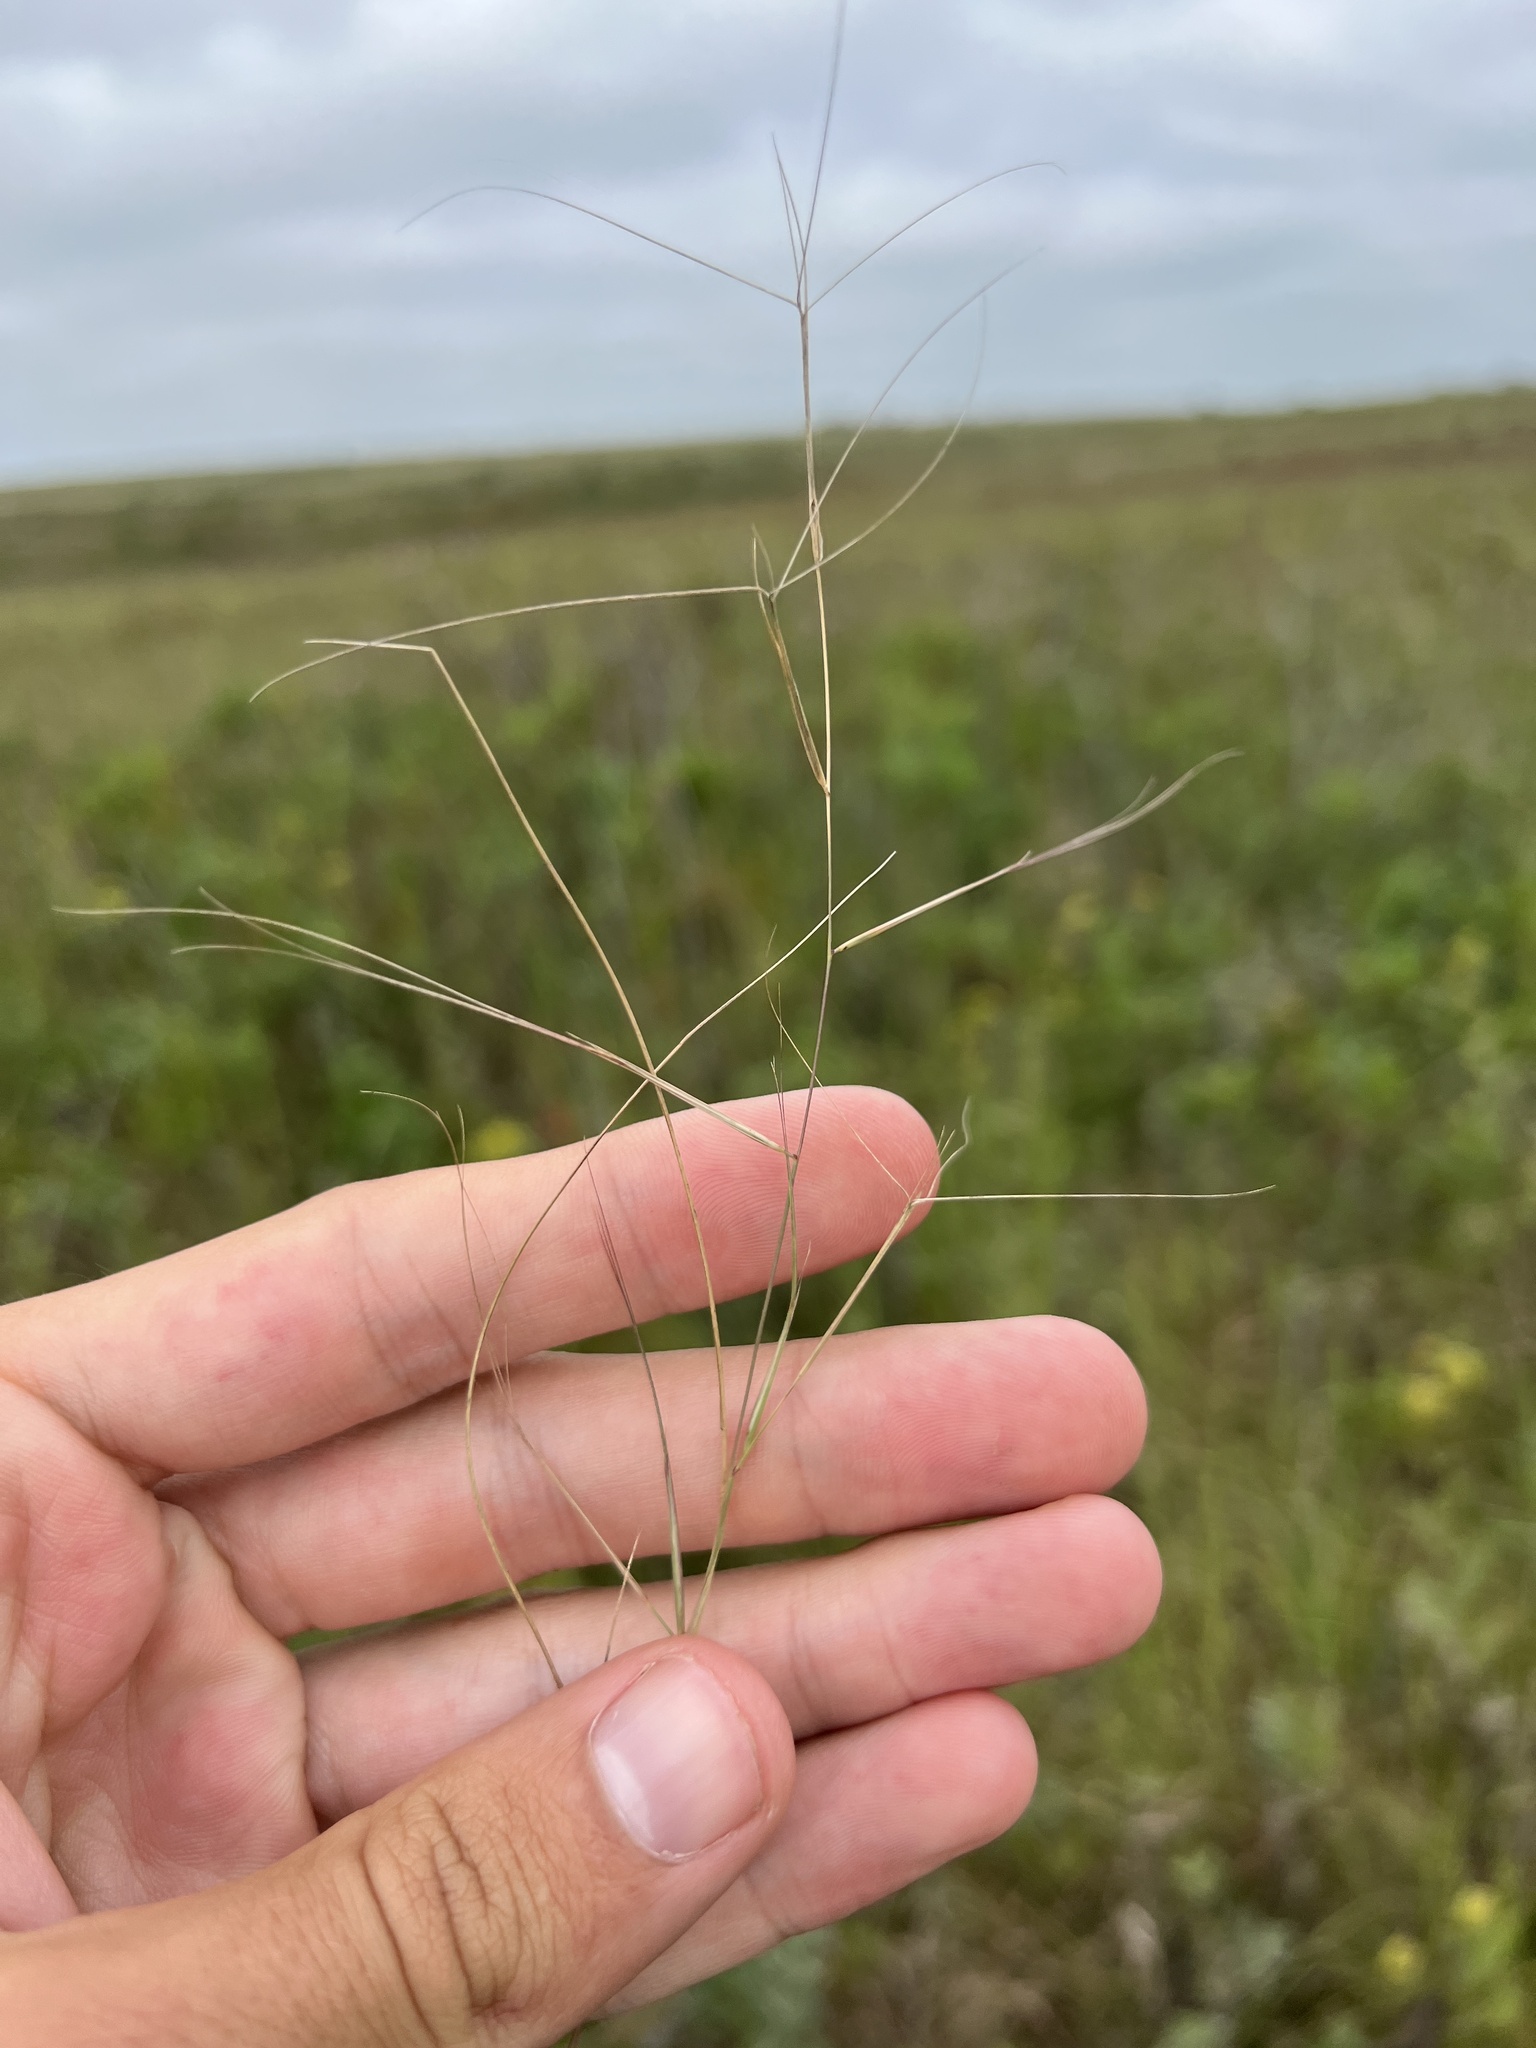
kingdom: Plantae
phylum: Tracheophyta
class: Liliopsida
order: Poales
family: Poaceae
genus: Aristida
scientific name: Aristida oligantha
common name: Few-flowered aristida
